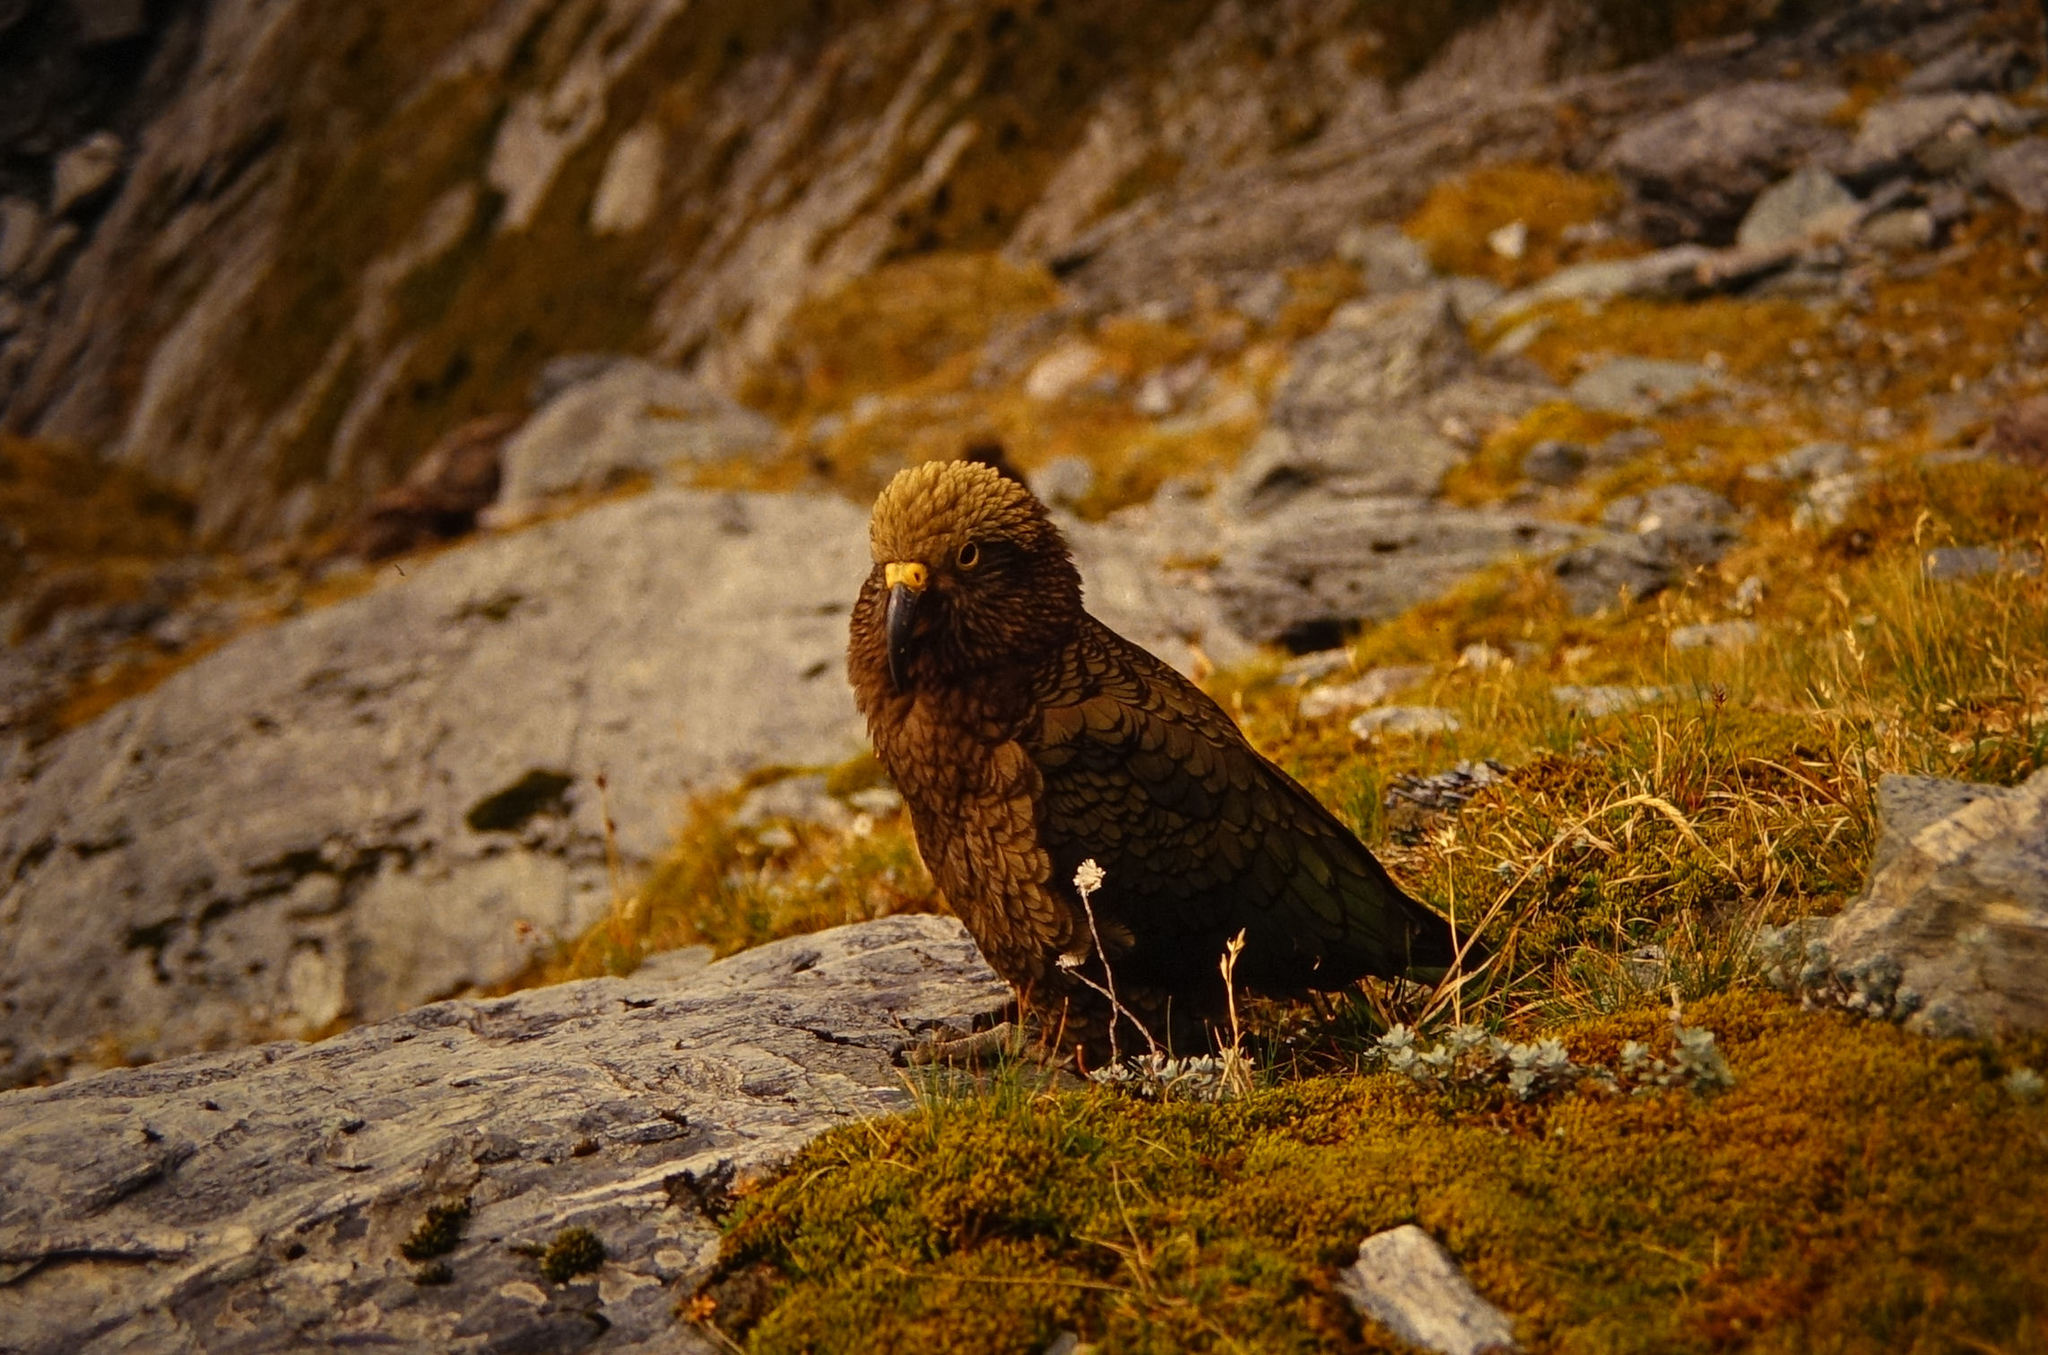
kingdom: Animalia
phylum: Chordata
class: Aves
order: Psittaciformes
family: Psittacidae
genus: Nestor
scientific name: Nestor notabilis
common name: Kea
